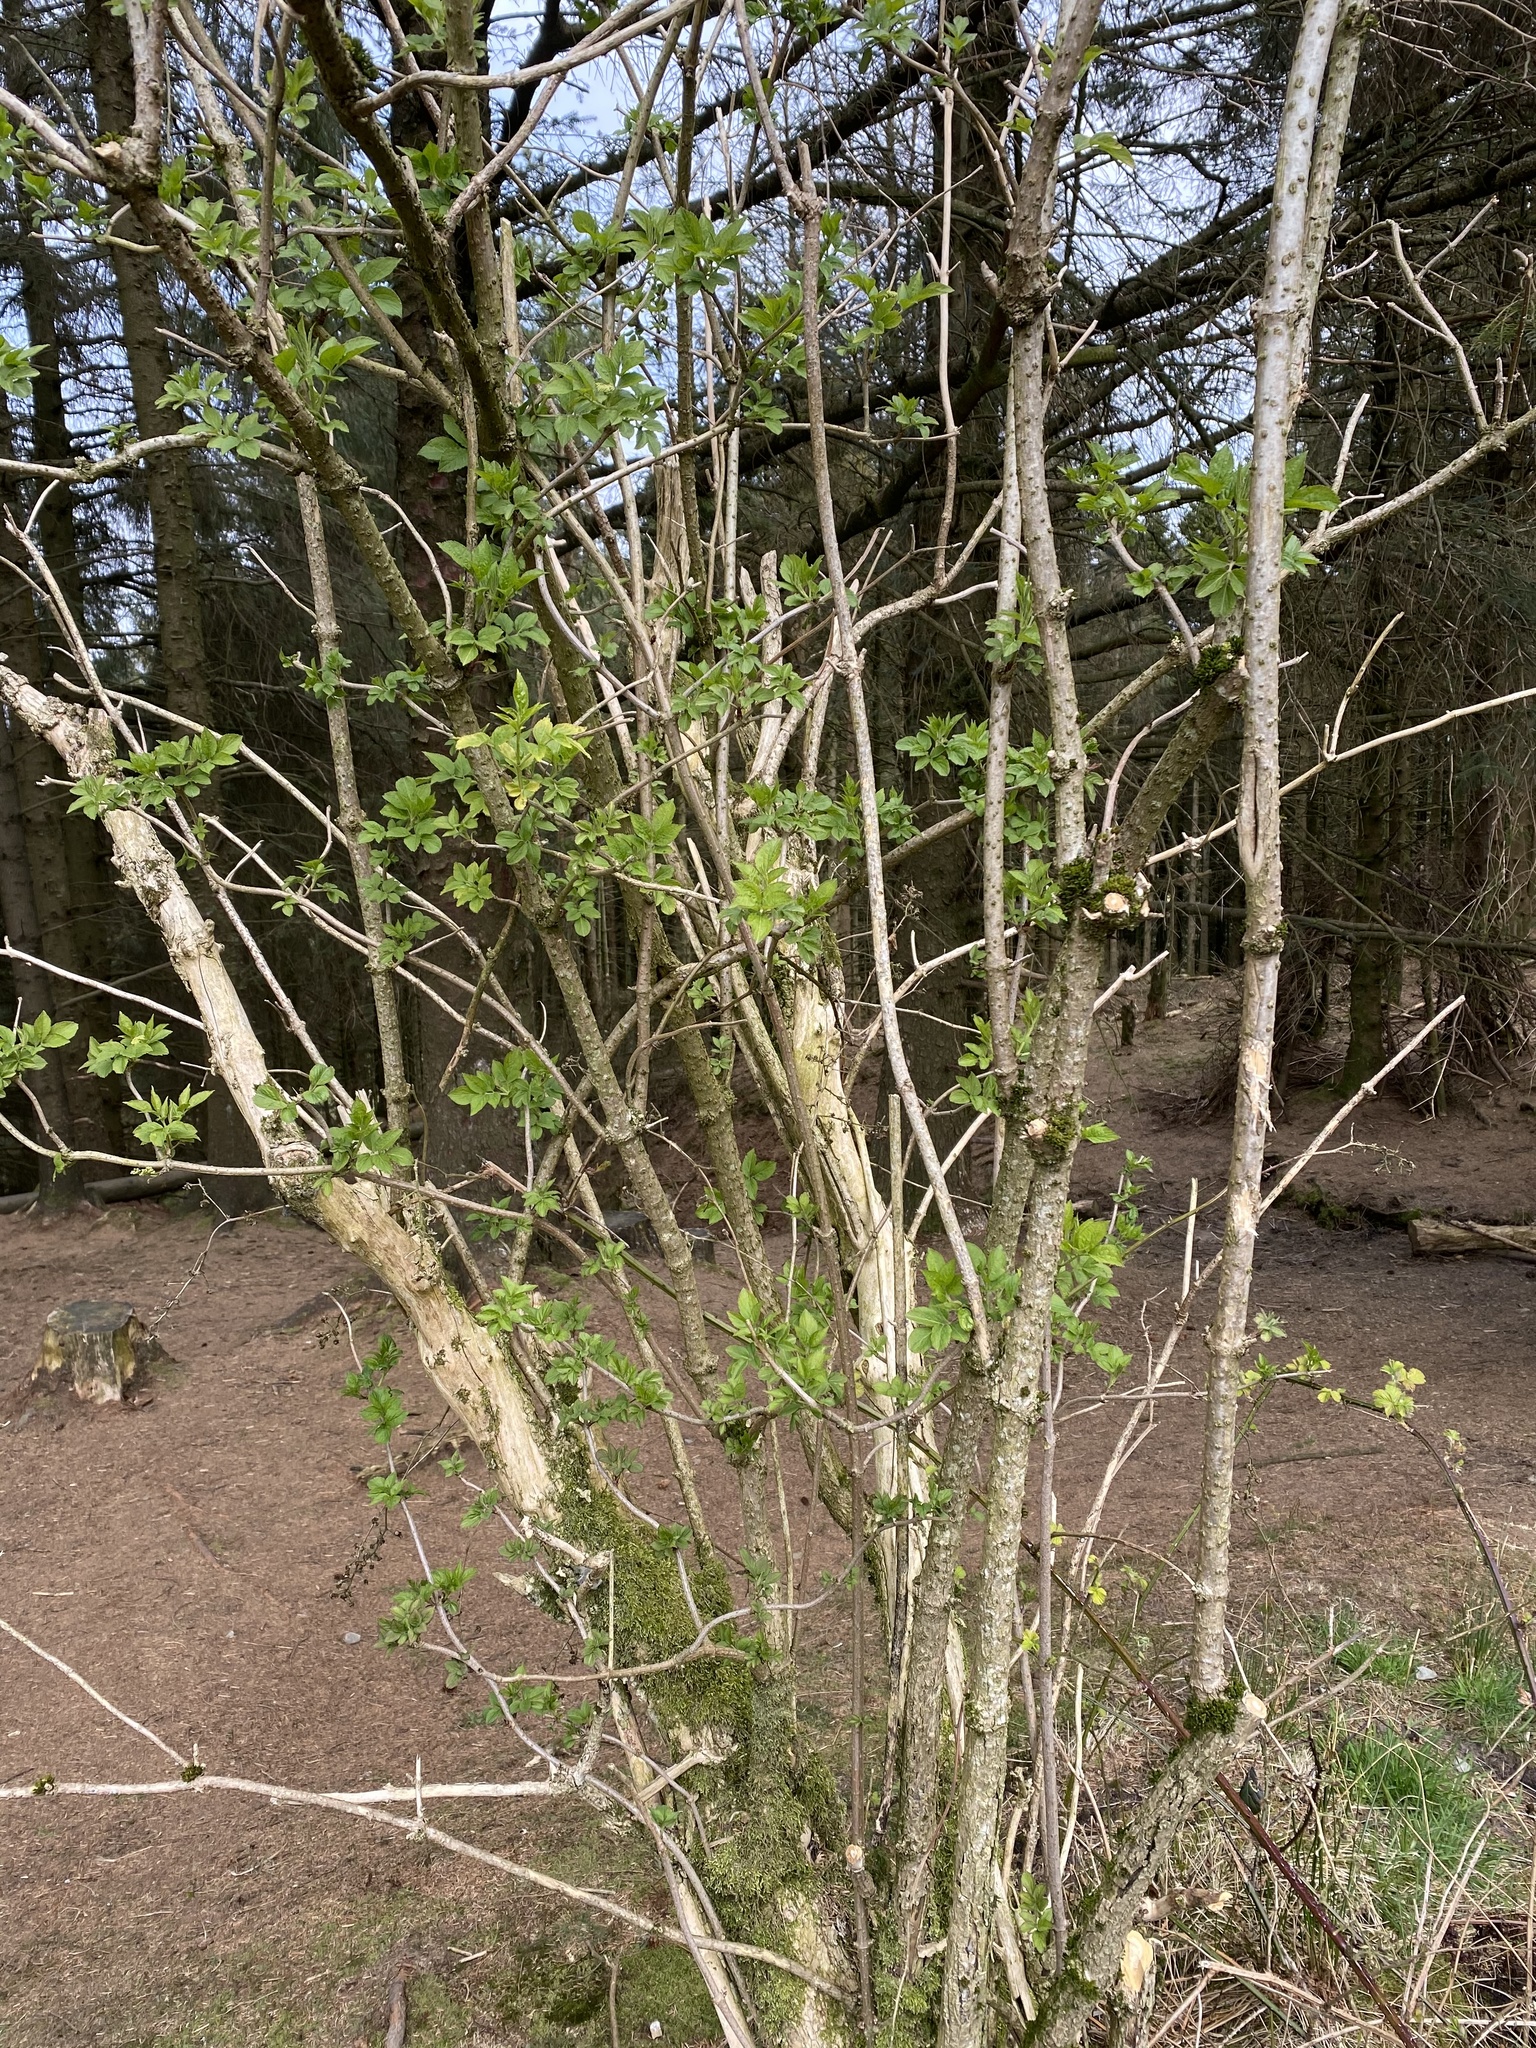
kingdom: Plantae
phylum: Tracheophyta
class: Magnoliopsida
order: Dipsacales
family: Viburnaceae
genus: Sambucus
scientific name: Sambucus nigra
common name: Elder
